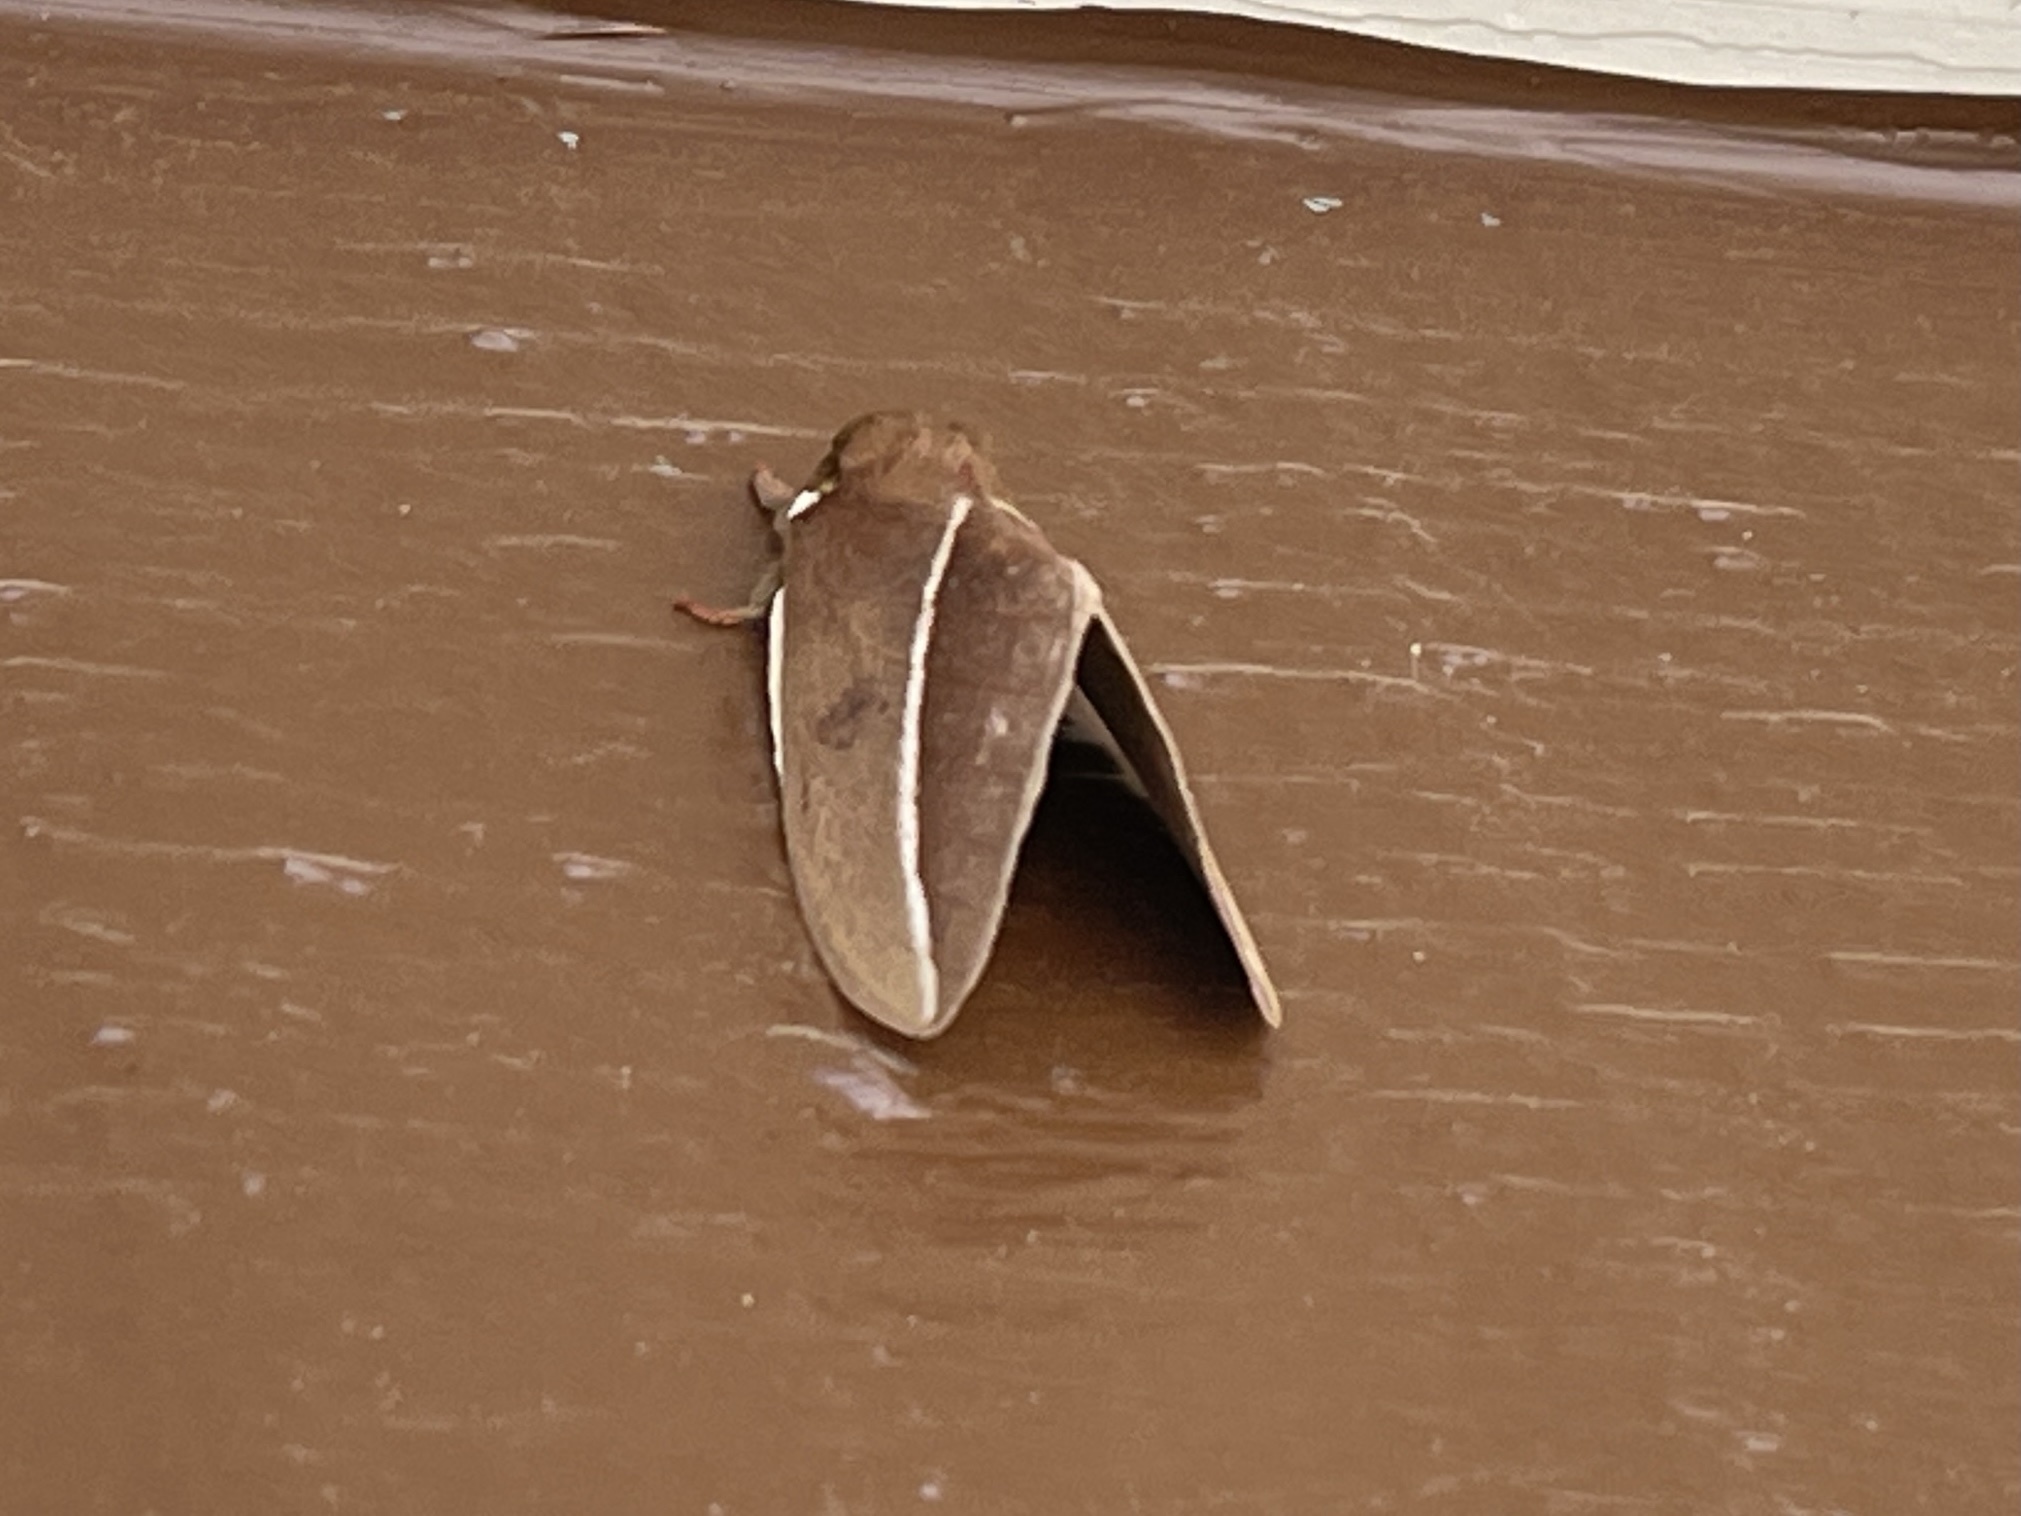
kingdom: Animalia
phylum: Arthropoda
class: Insecta
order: Lepidoptera
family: Saturniidae
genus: Automeris
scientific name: Automeris zephyria
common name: Zephyr eyed silkmoth
